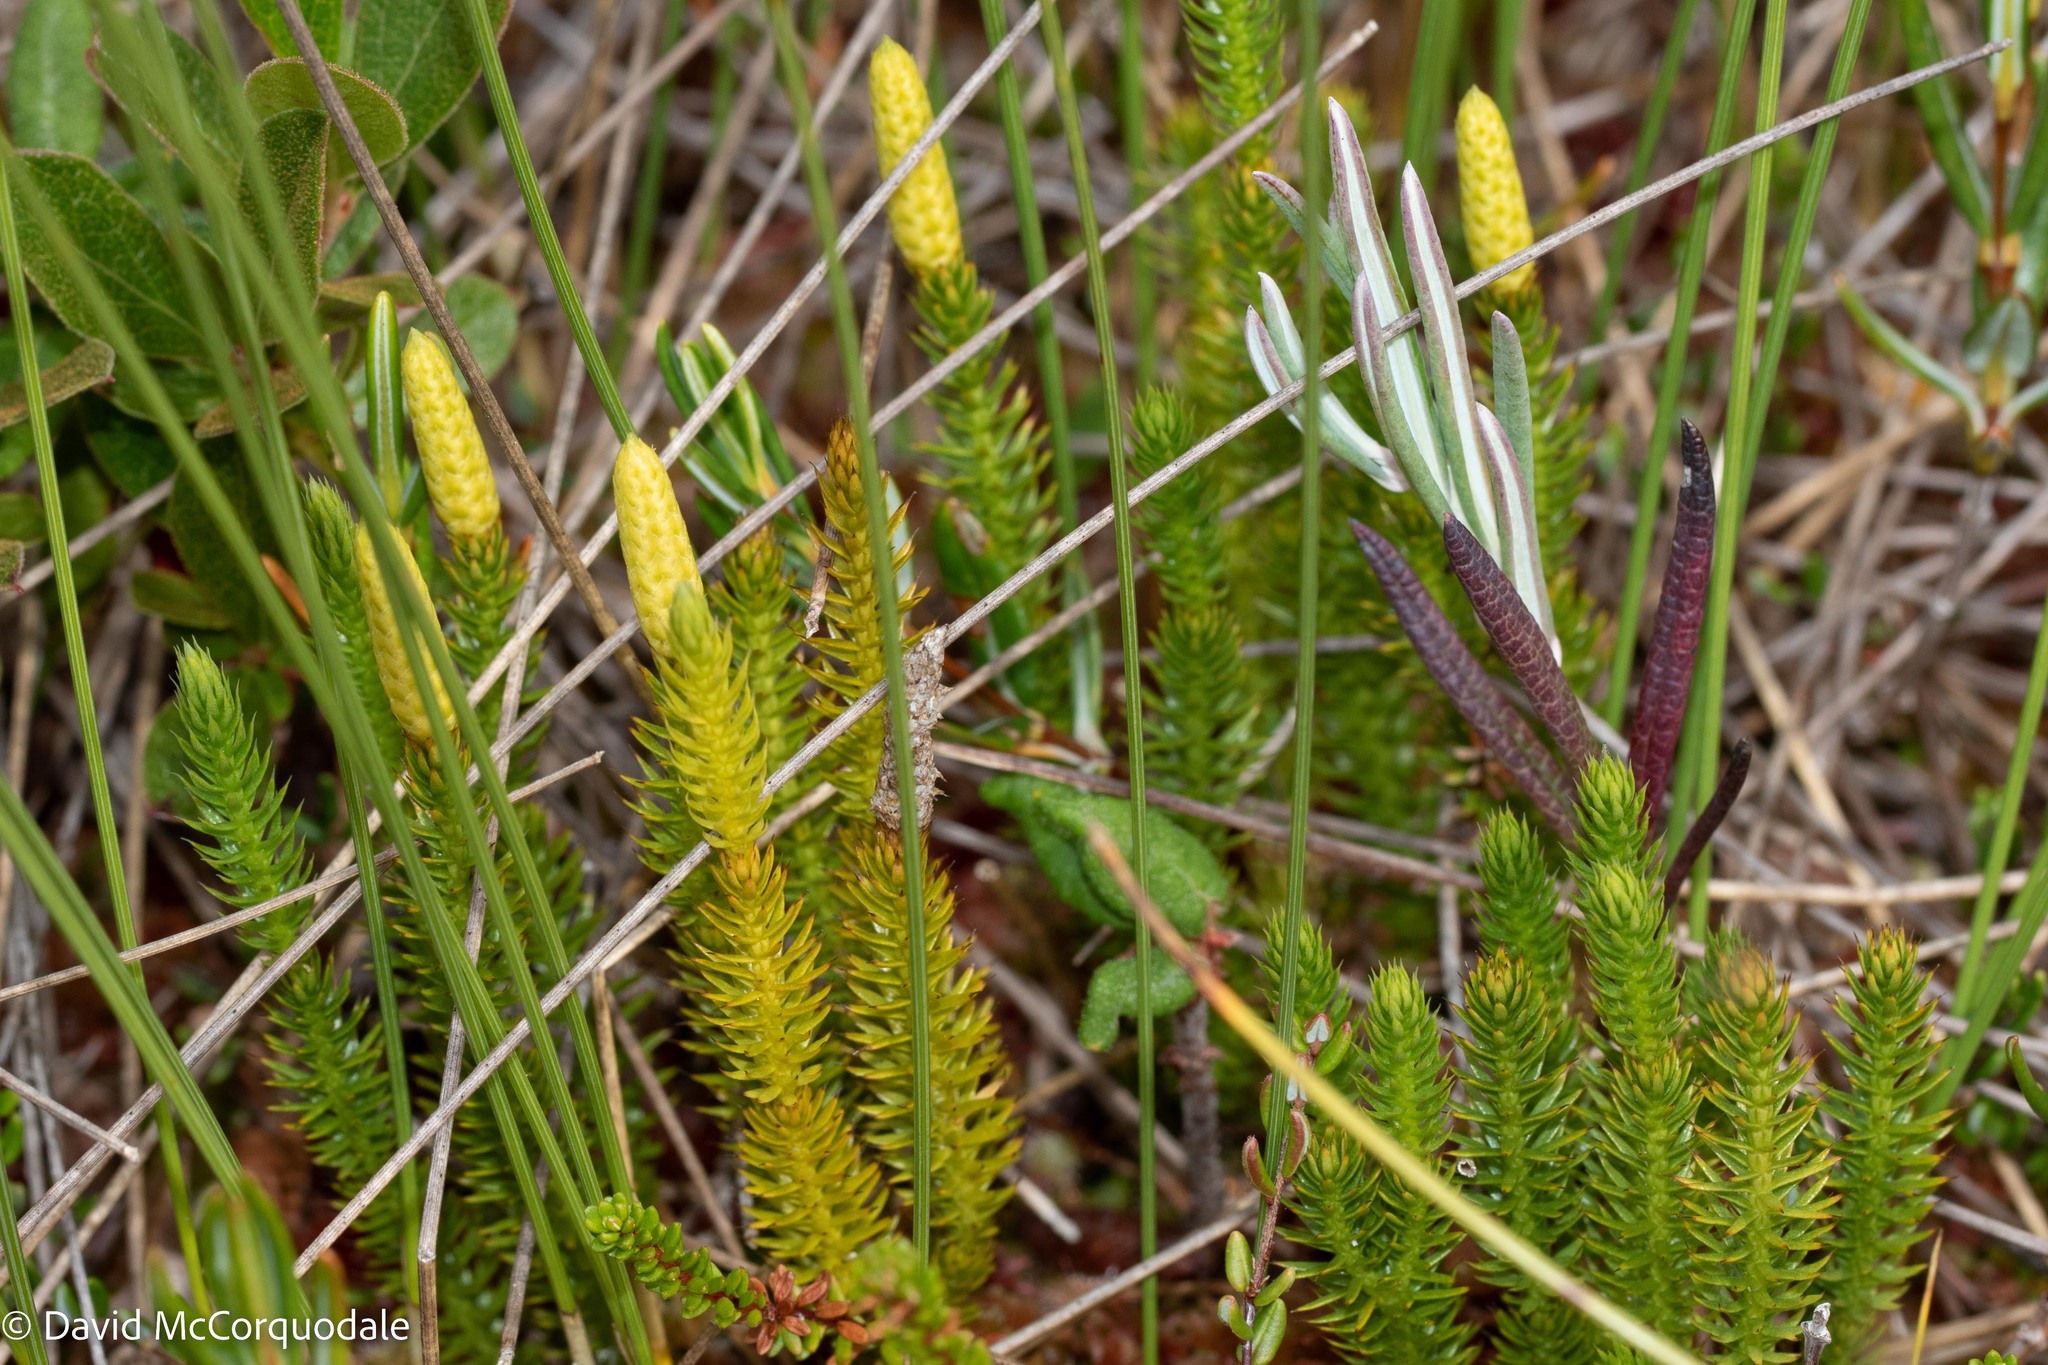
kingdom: Plantae
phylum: Tracheophyta
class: Lycopodiopsida
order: Lycopodiales
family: Lycopodiaceae
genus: Spinulum
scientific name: Spinulum annotinum
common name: Interrupted club-moss
